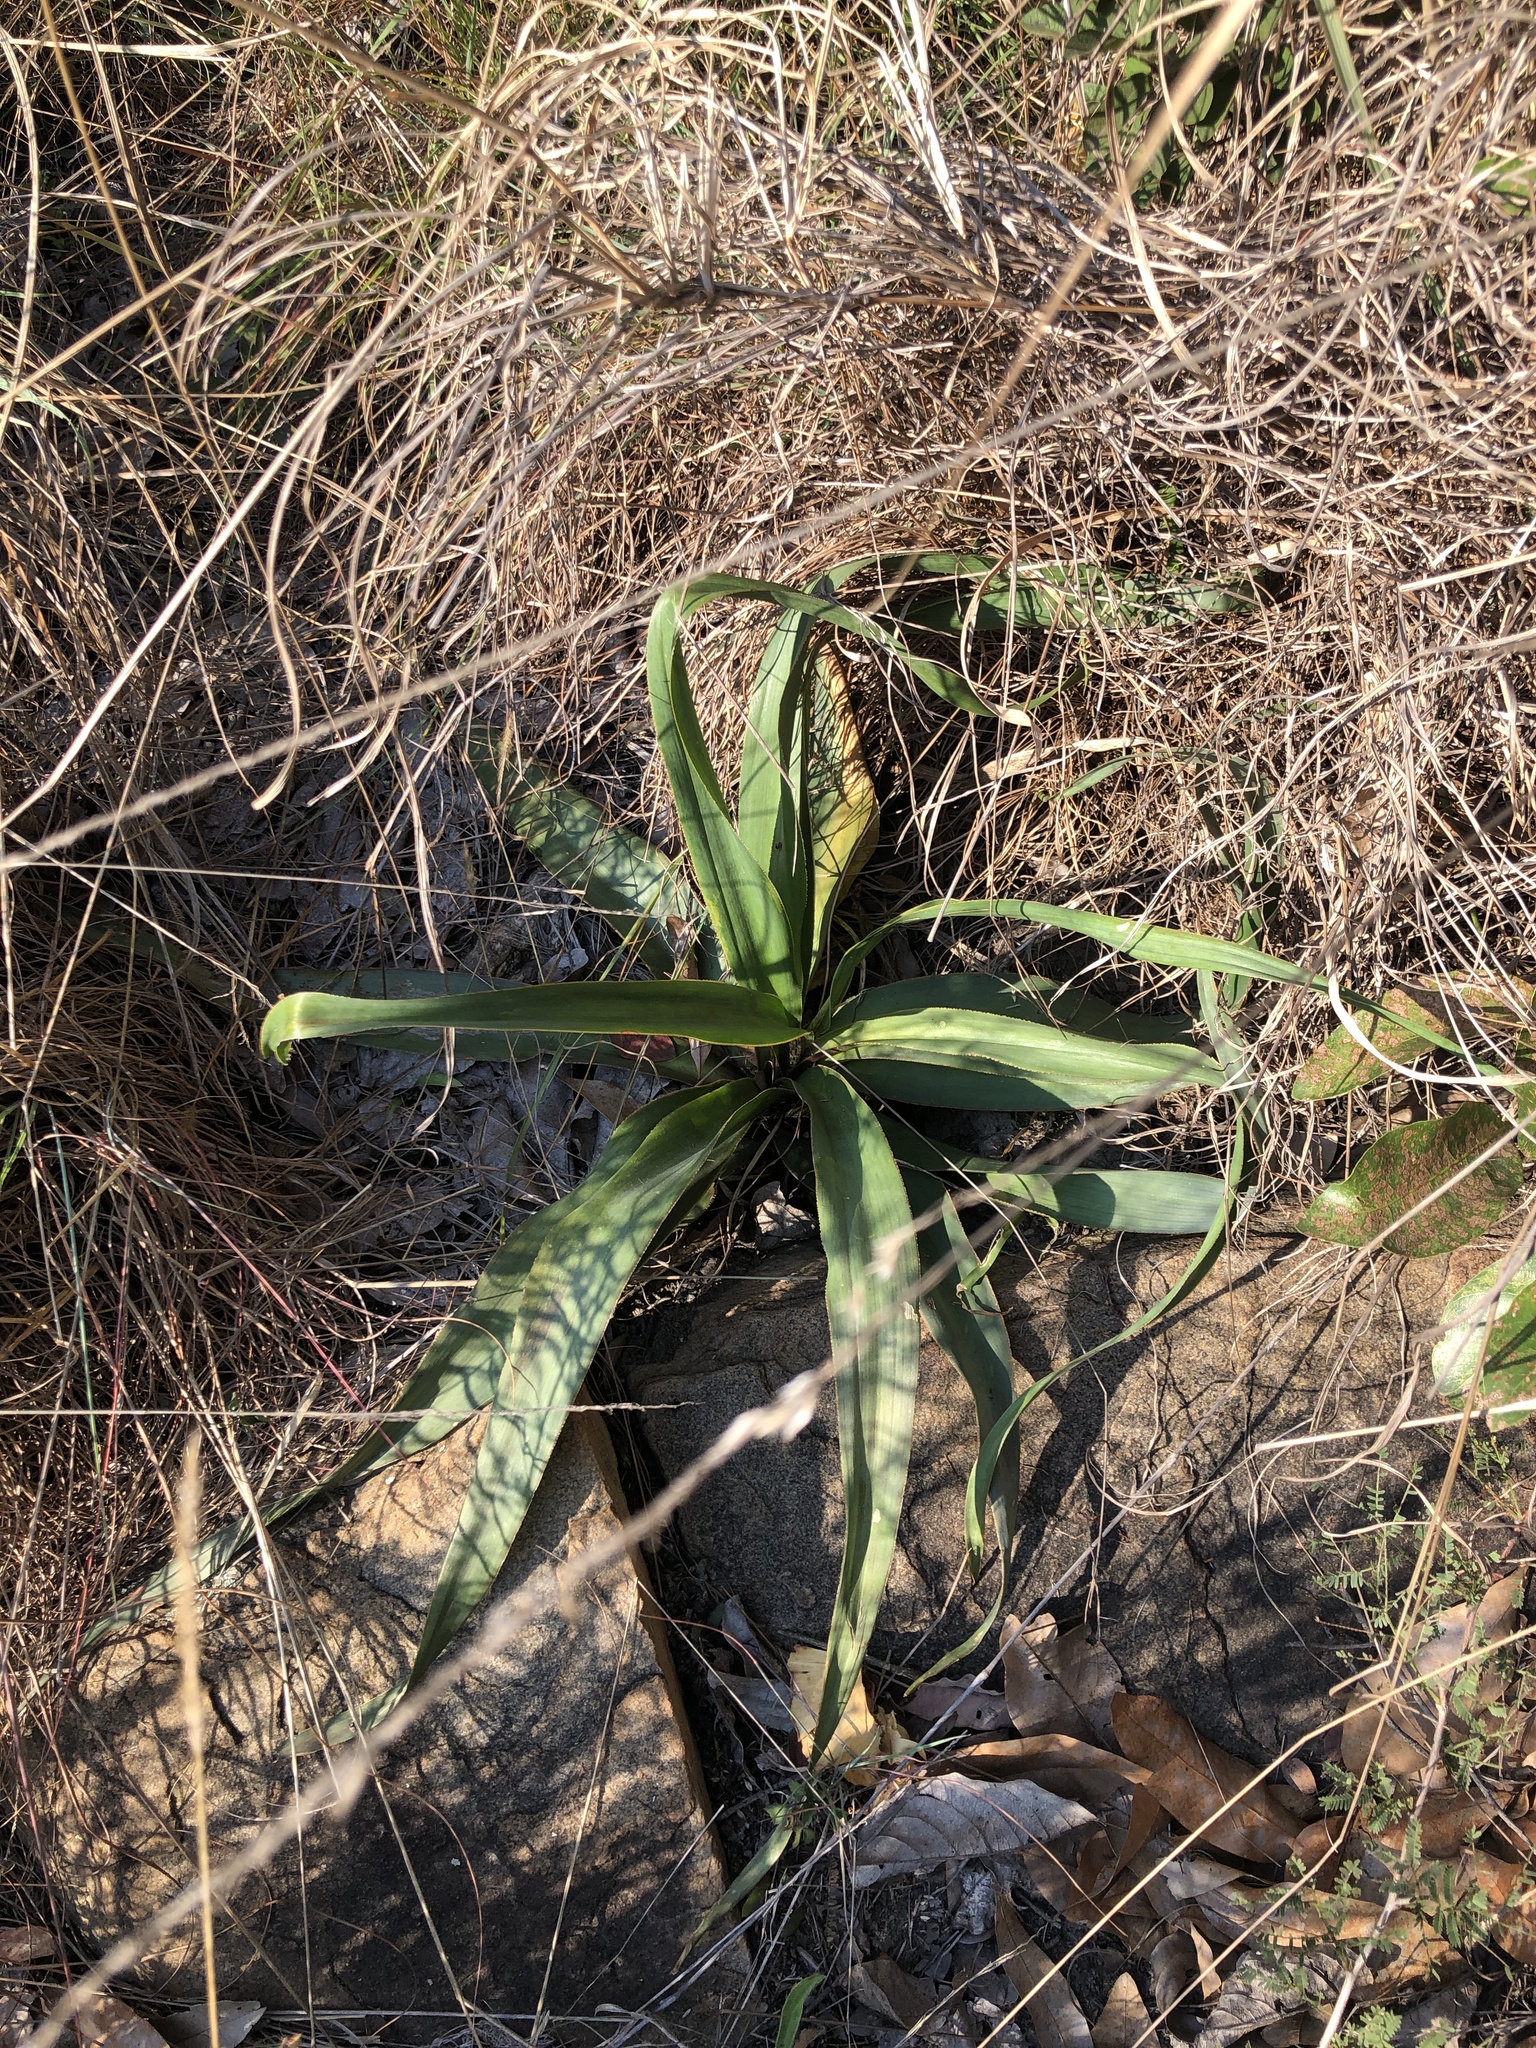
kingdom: Plantae
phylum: Tracheophyta
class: Liliopsida
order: Asparagales
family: Asparagaceae
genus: Merwilla
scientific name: Merwilla plumbea
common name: Blue-squill
